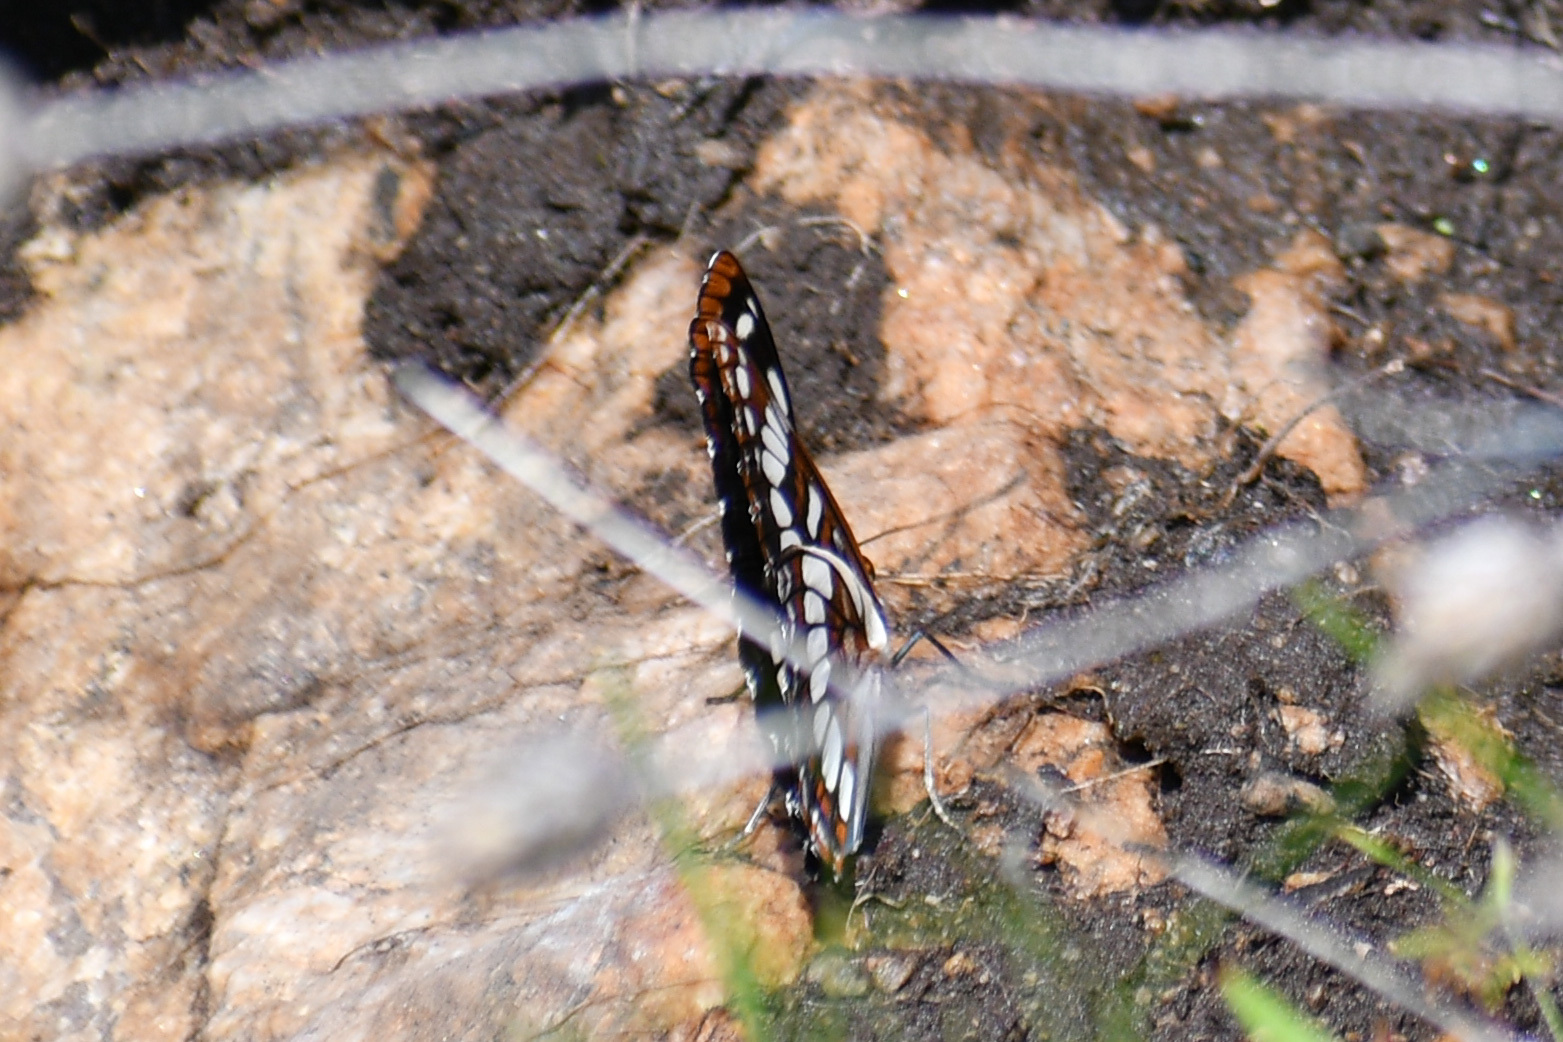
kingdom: Animalia
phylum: Arthropoda
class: Insecta
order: Lepidoptera
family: Nymphalidae
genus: Limenitis
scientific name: Limenitis lorquini
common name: Lorquin's admiral
